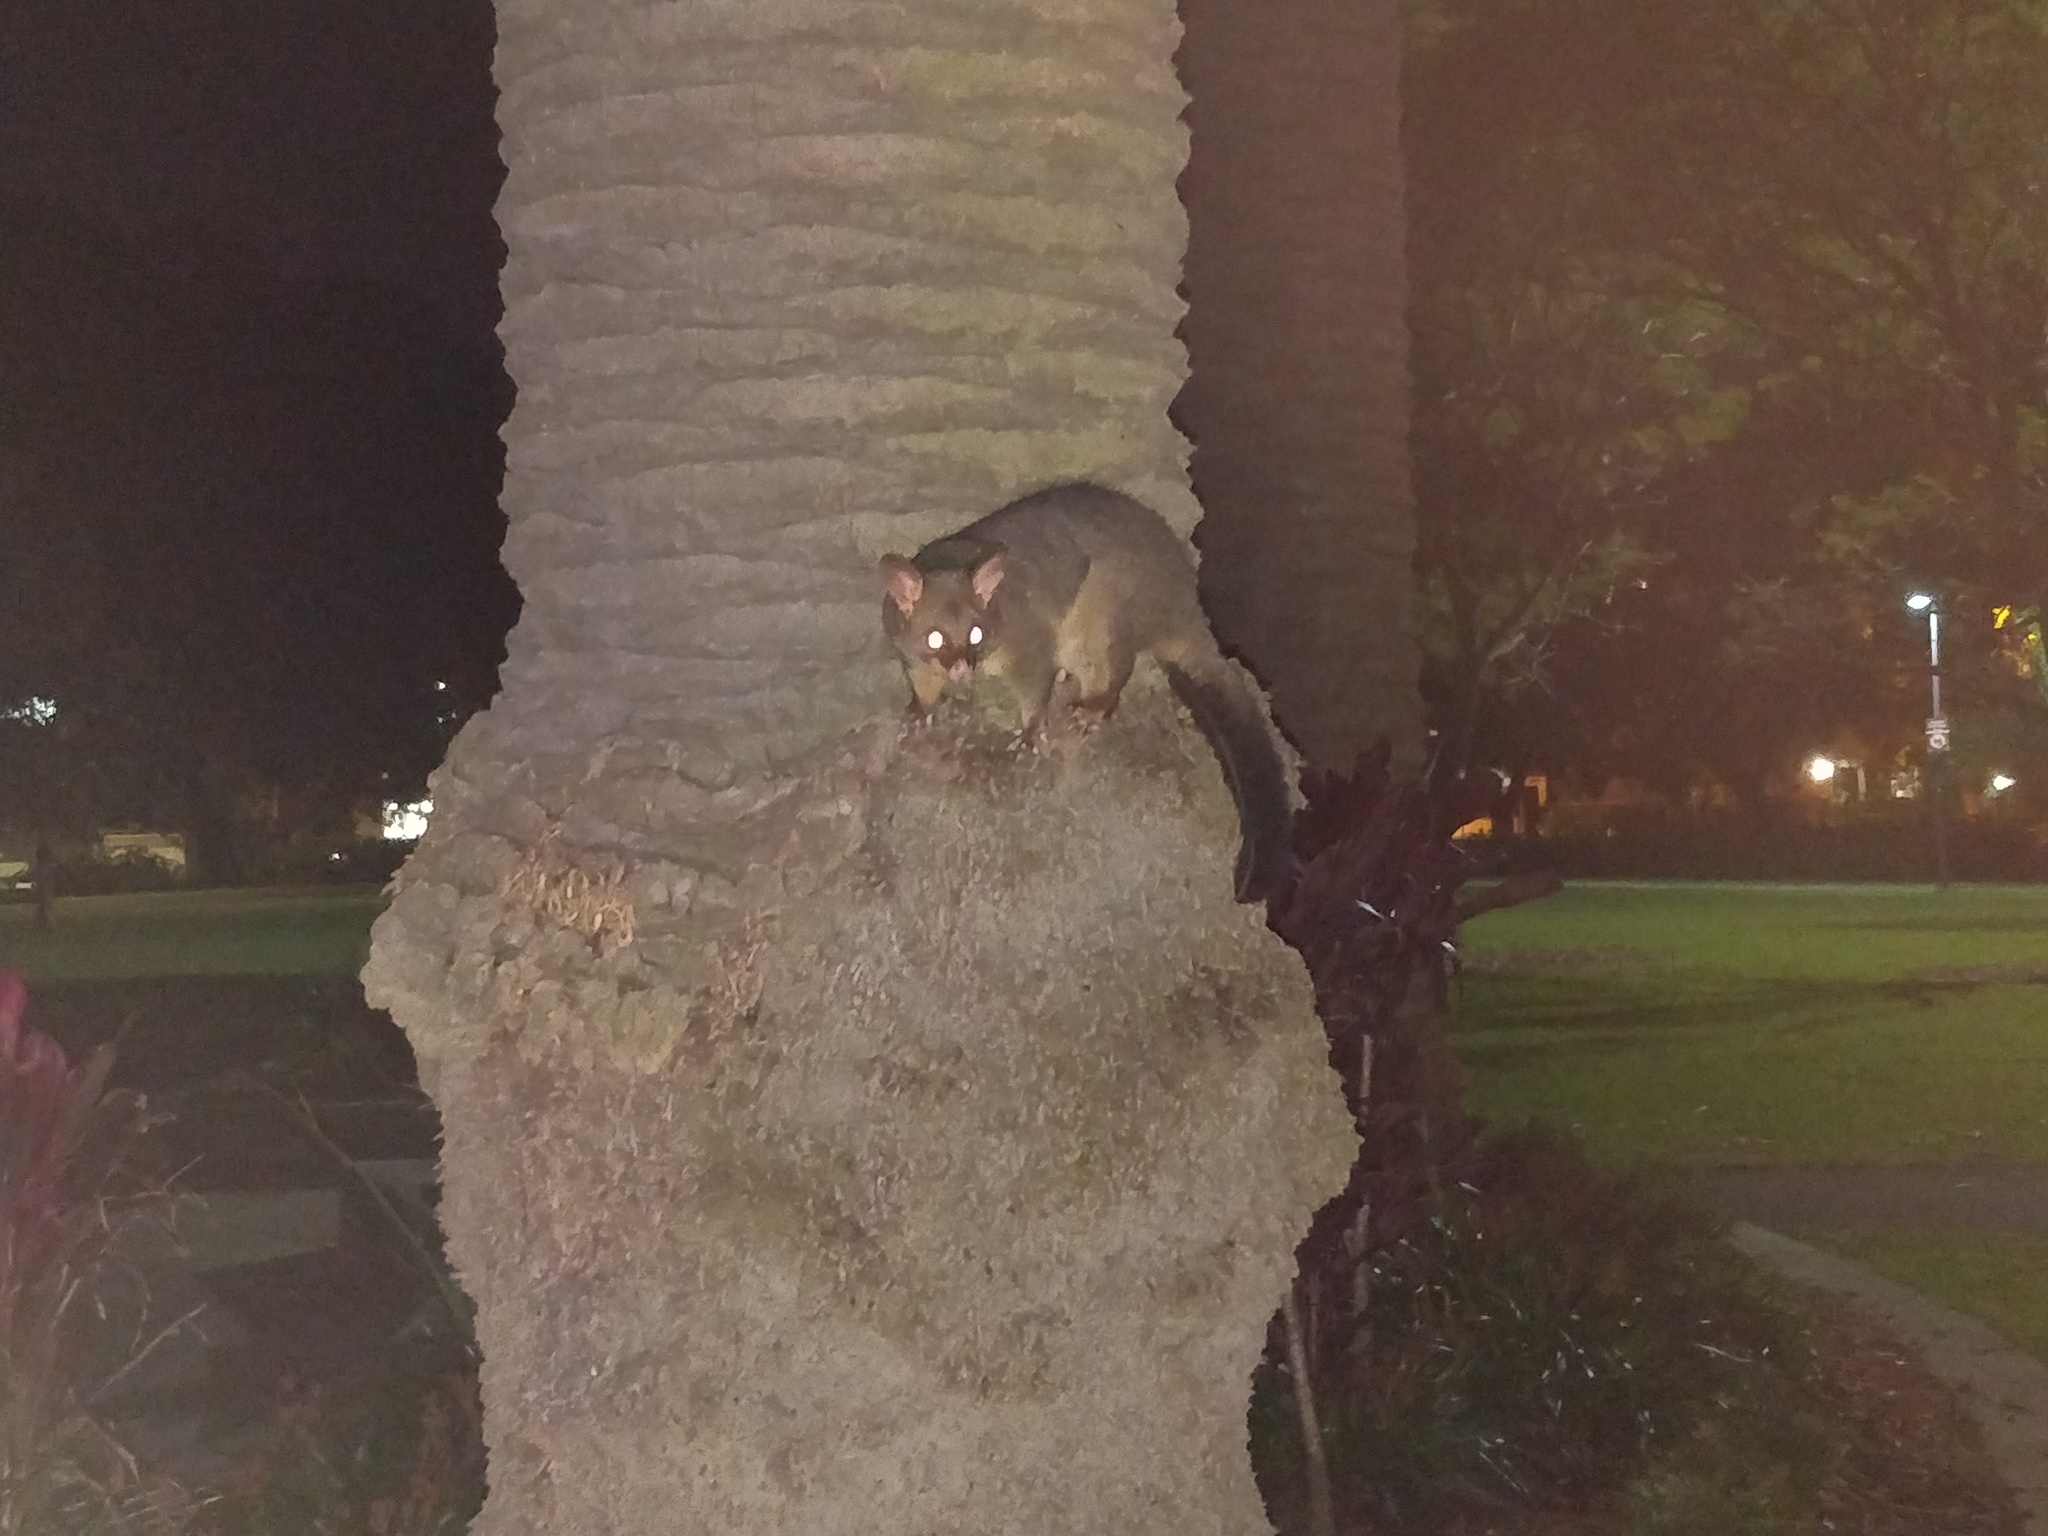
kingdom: Animalia
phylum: Chordata
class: Mammalia
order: Diprotodontia
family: Phalangeridae
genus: Trichosurus
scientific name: Trichosurus vulpecula
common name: Common brushtail
